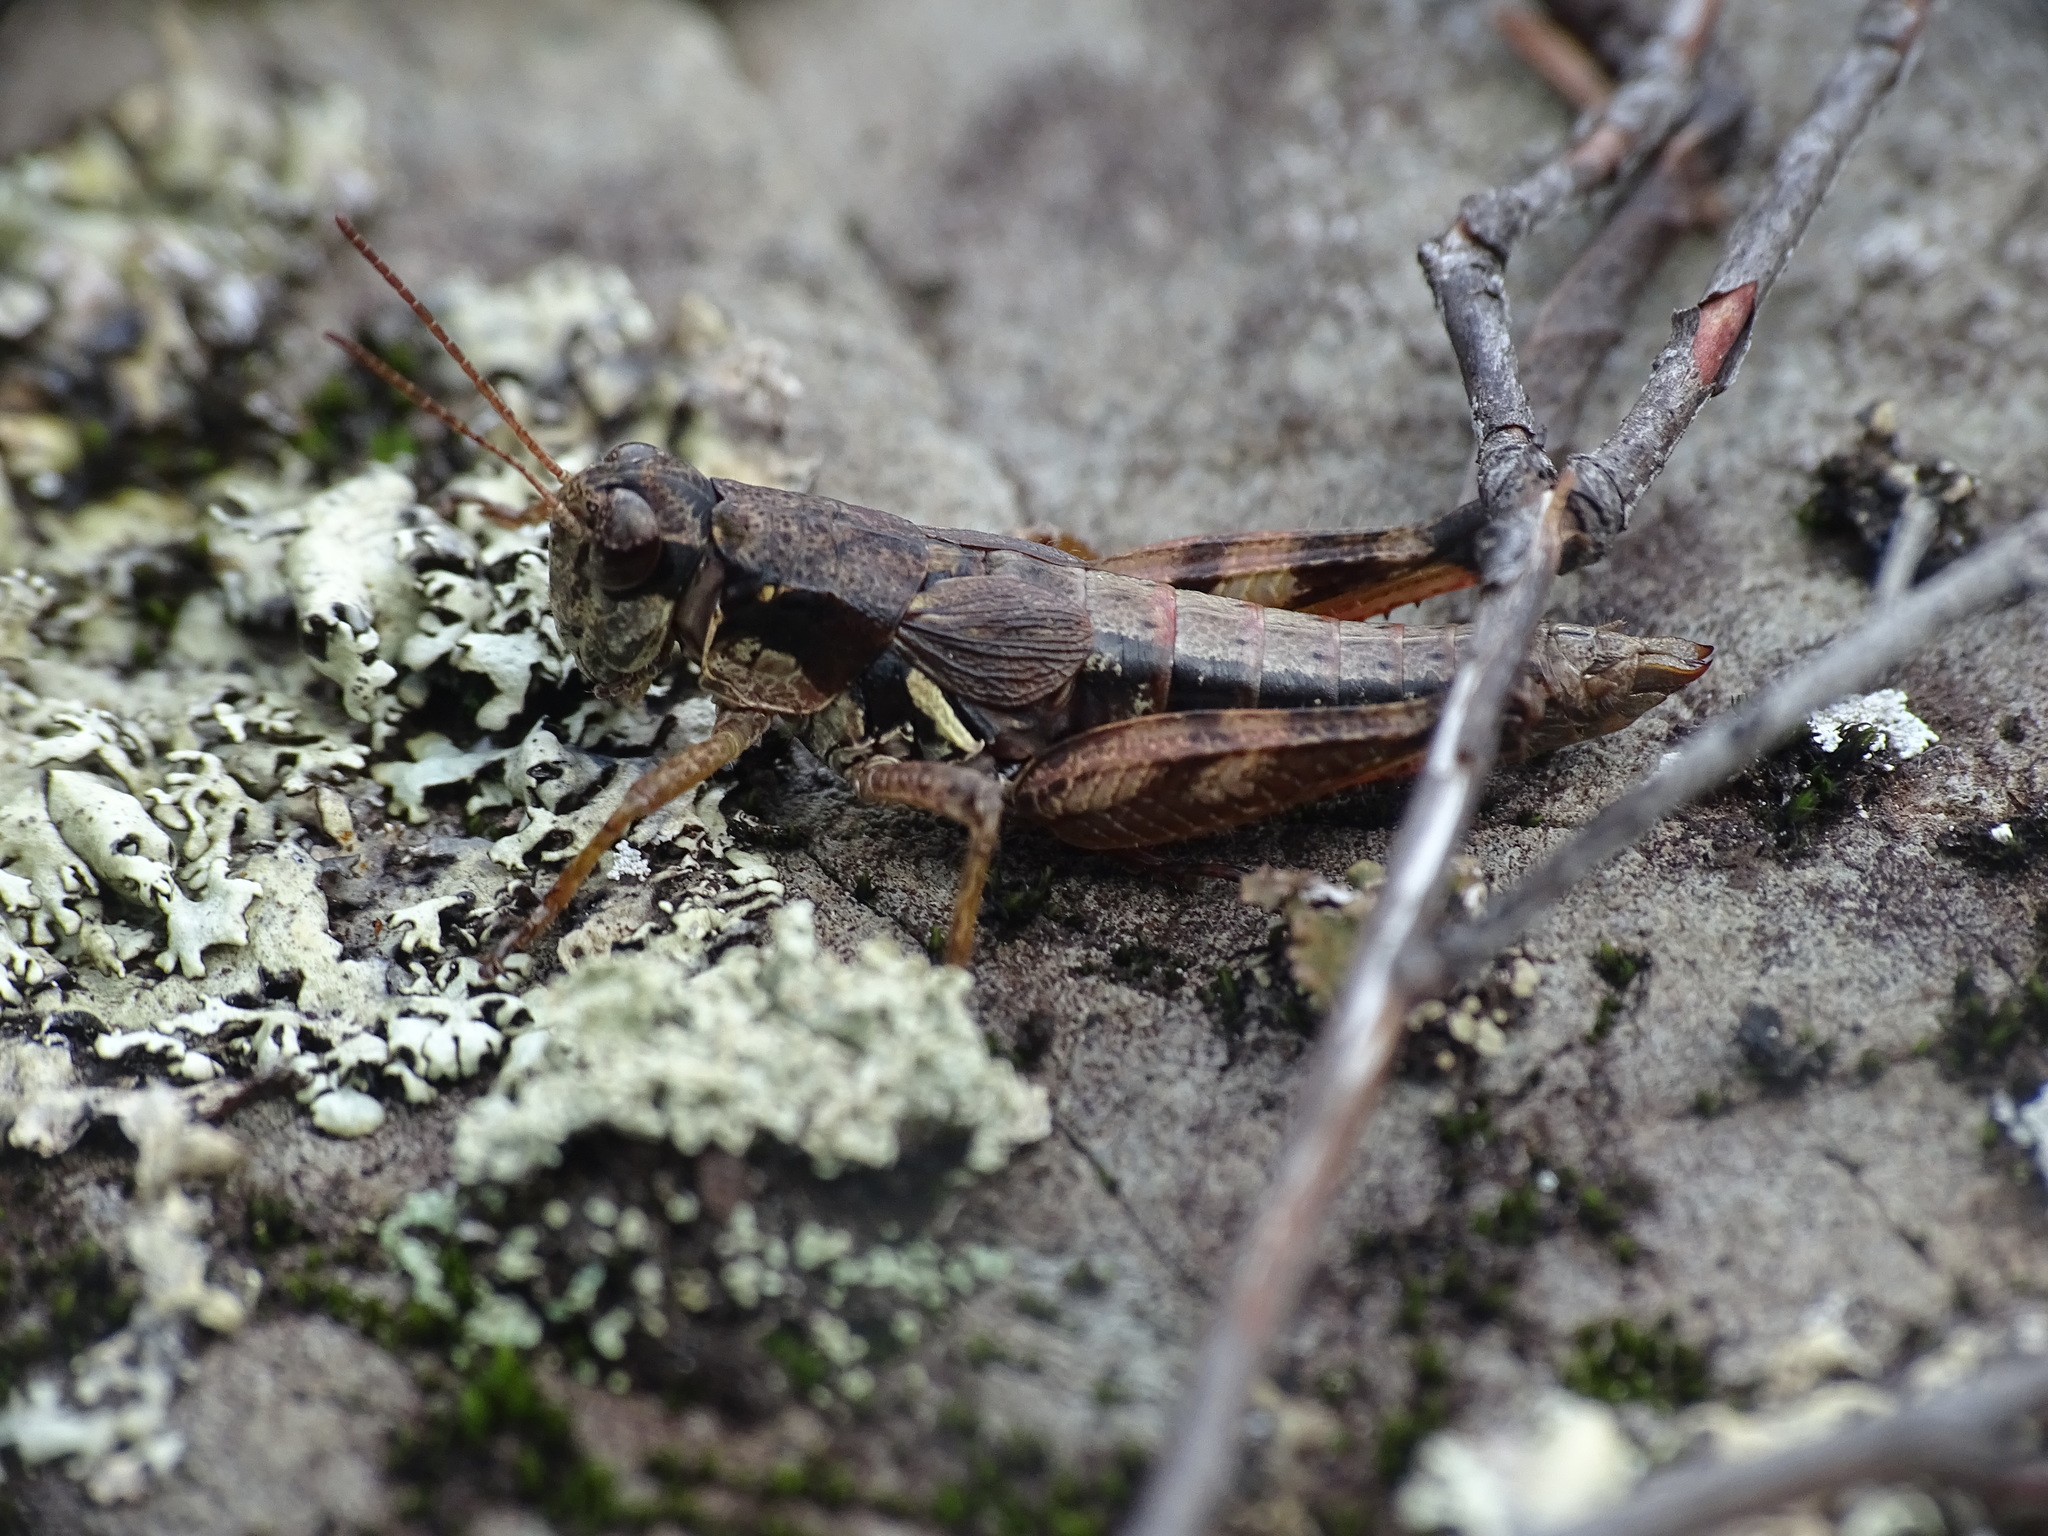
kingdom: Animalia
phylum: Arthropoda
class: Insecta
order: Orthoptera
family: Acrididae
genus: Melanoplus
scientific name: Melanoplus islandicus
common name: Island locust
